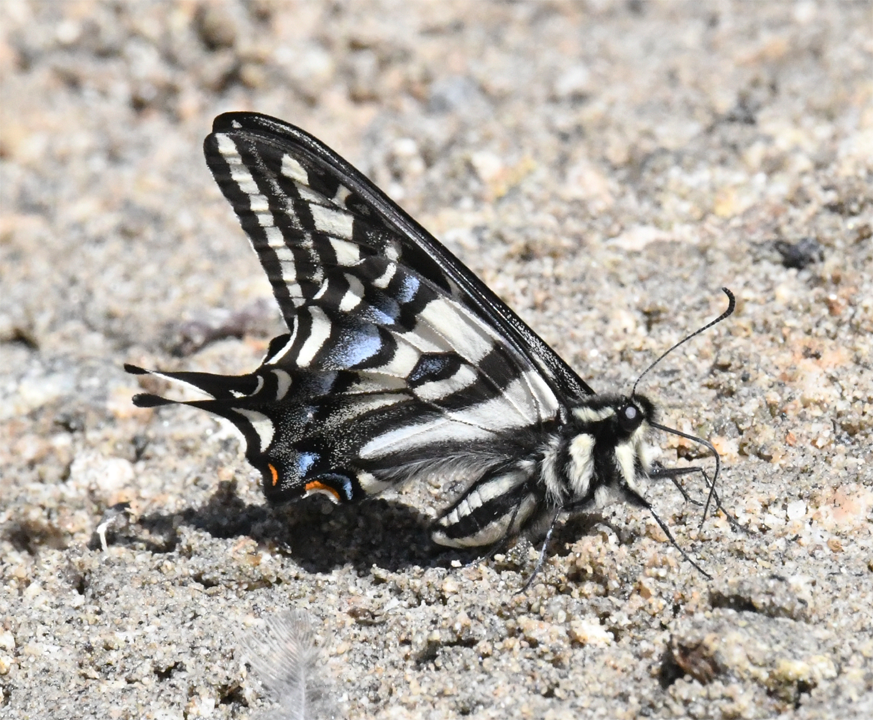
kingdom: Animalia
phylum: Arthropoda
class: Insecta
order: Lepidoptera
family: Papilionidae
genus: Papilio
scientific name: Papilio eurymedon
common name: Pale tiger swallowtail
